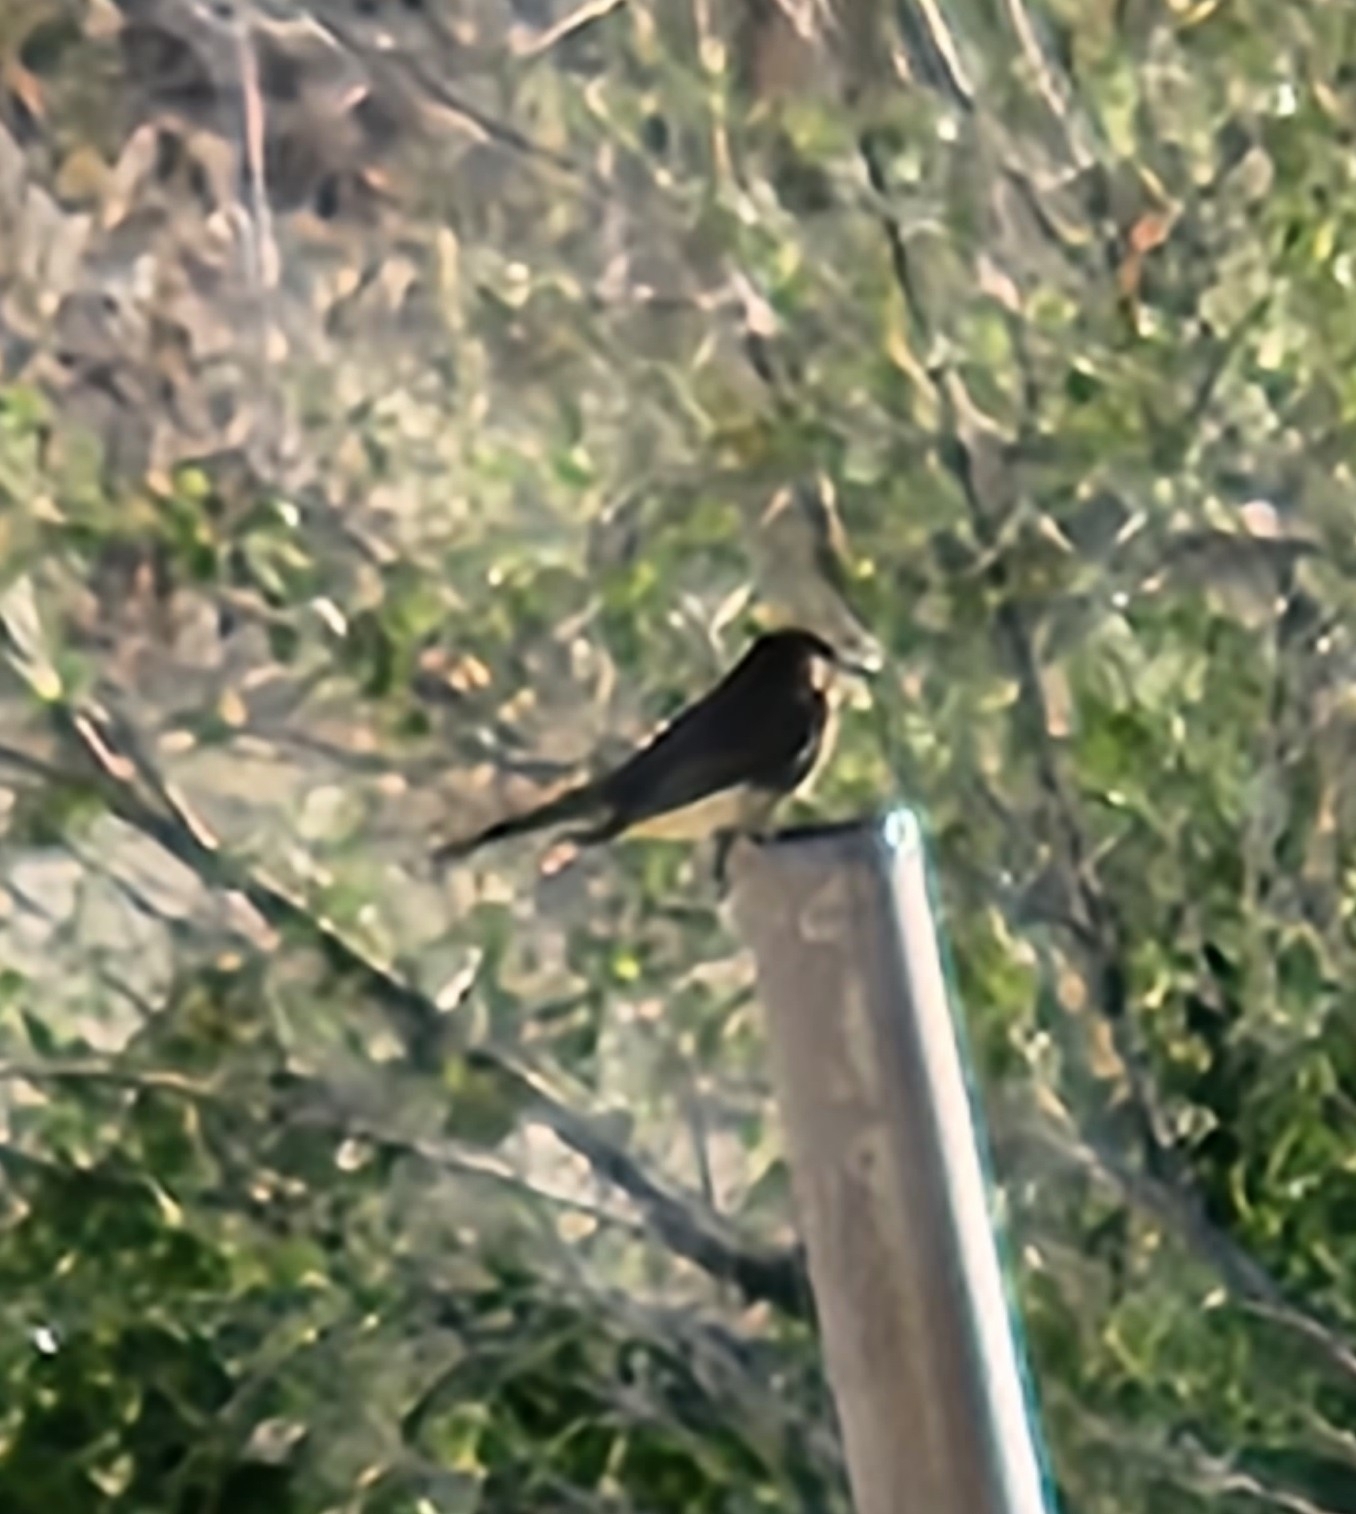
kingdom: Animalia
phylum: Chordata
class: Aves
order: Passeriformes
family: Tyrannidae
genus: Sayornis
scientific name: Sayornis nigricans
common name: Black phoebe
